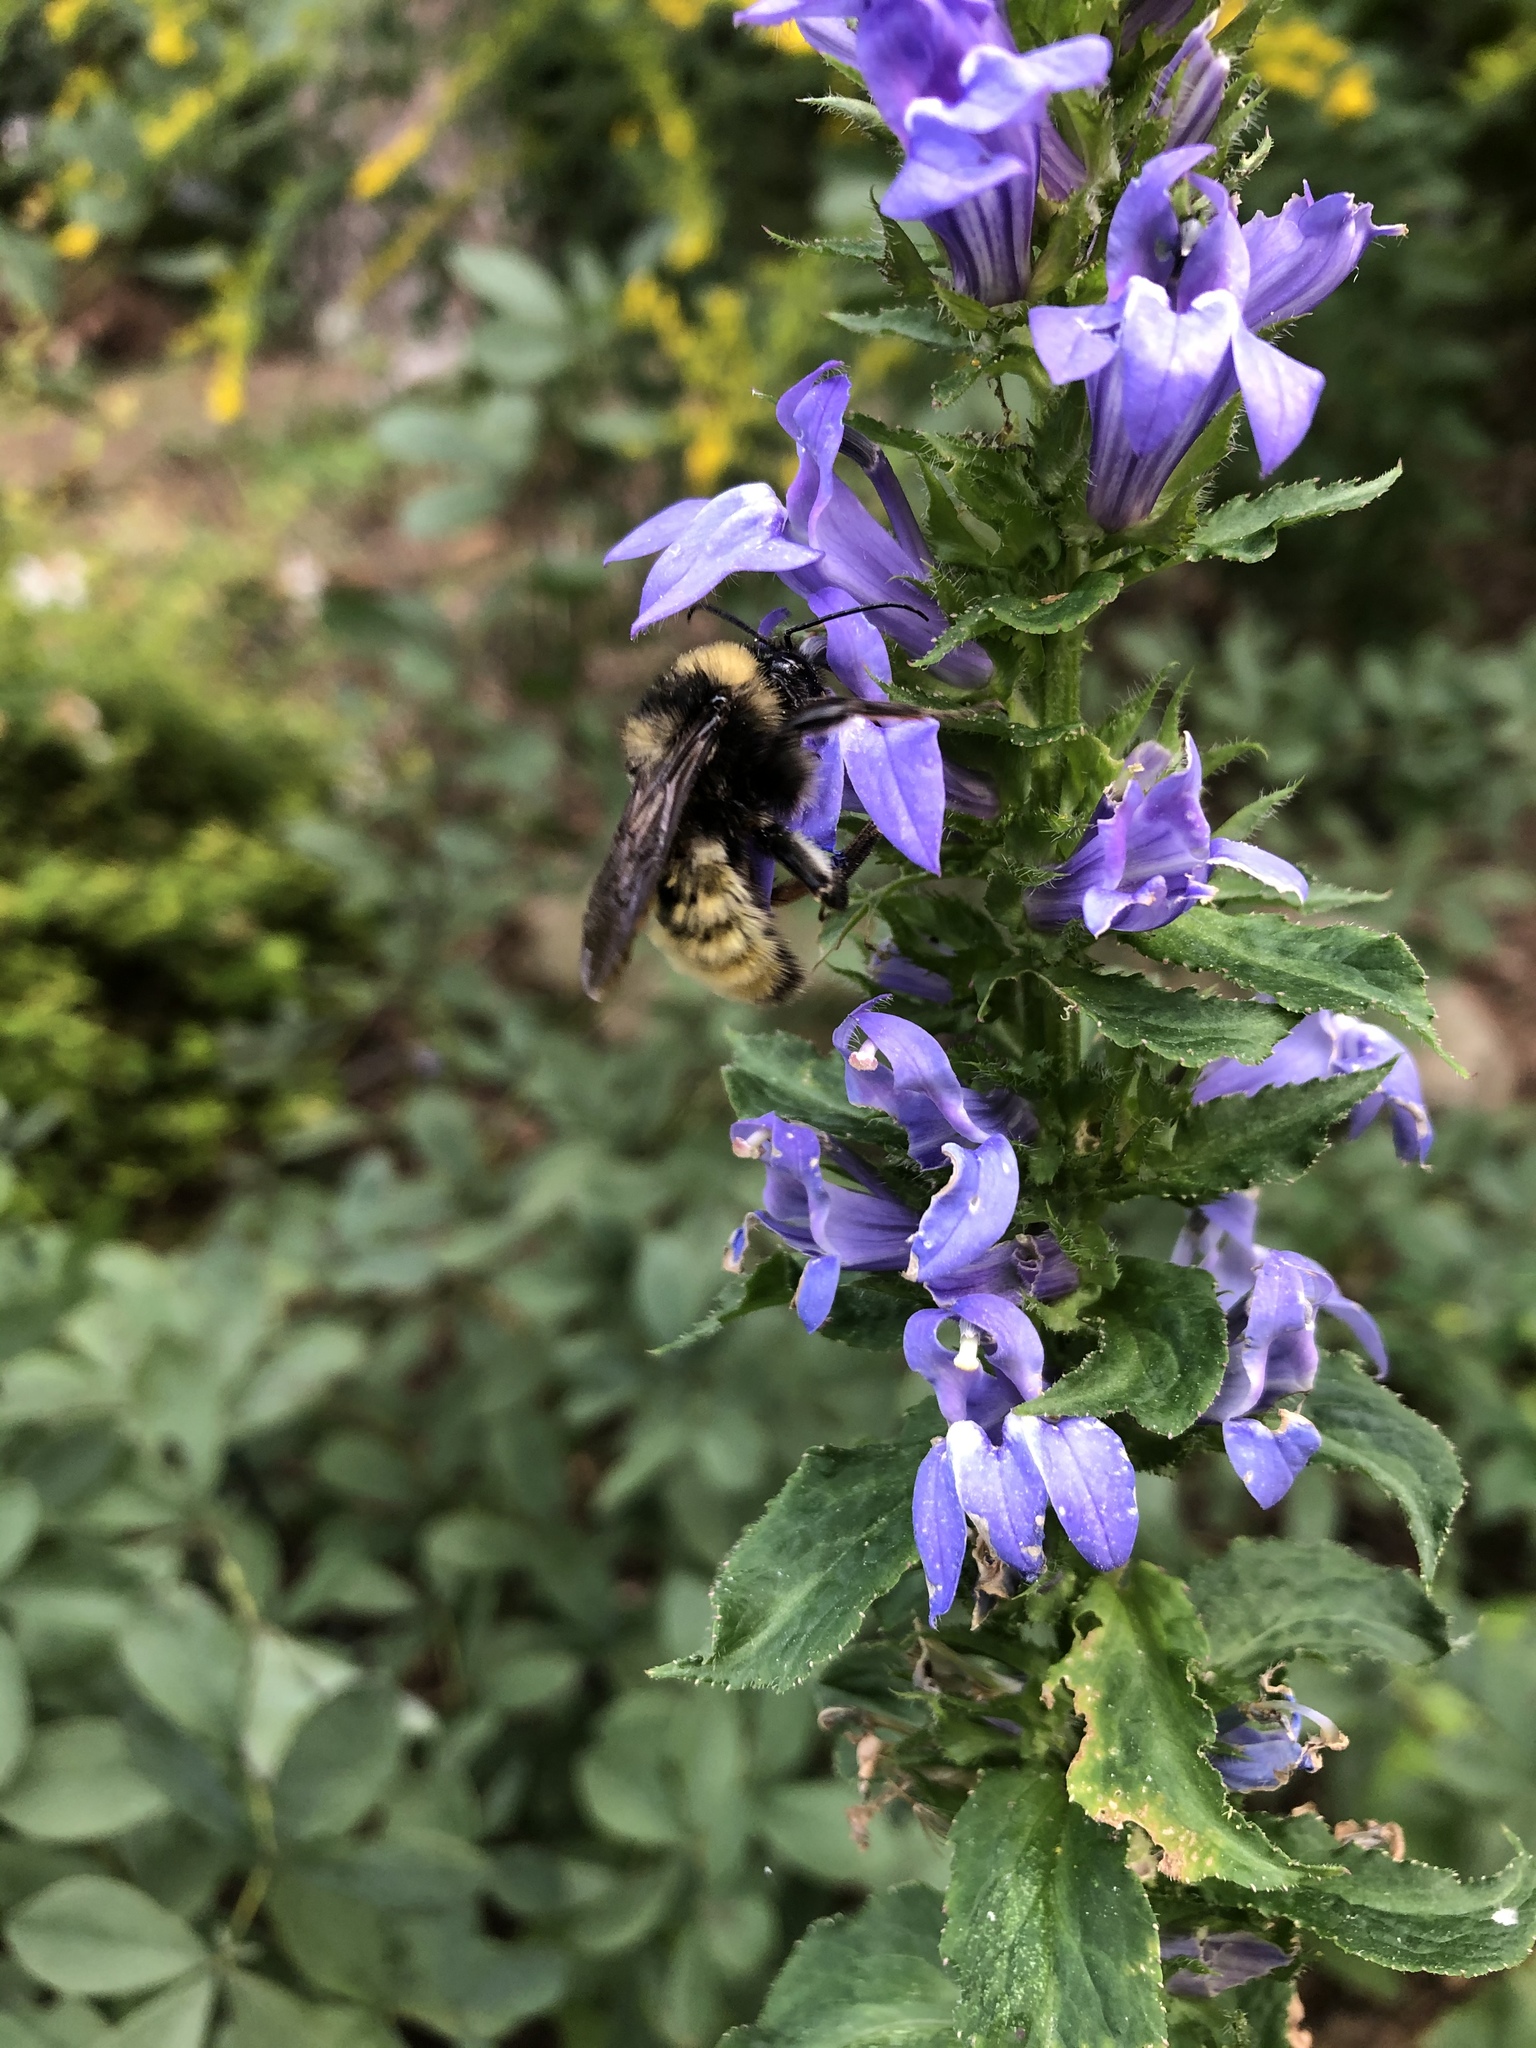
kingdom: Animalia
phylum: Arthropoda
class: Insecta
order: Hymenoptera
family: Apidae
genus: Bombus
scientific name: Bombus pensylvanicus
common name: Bumble bee
